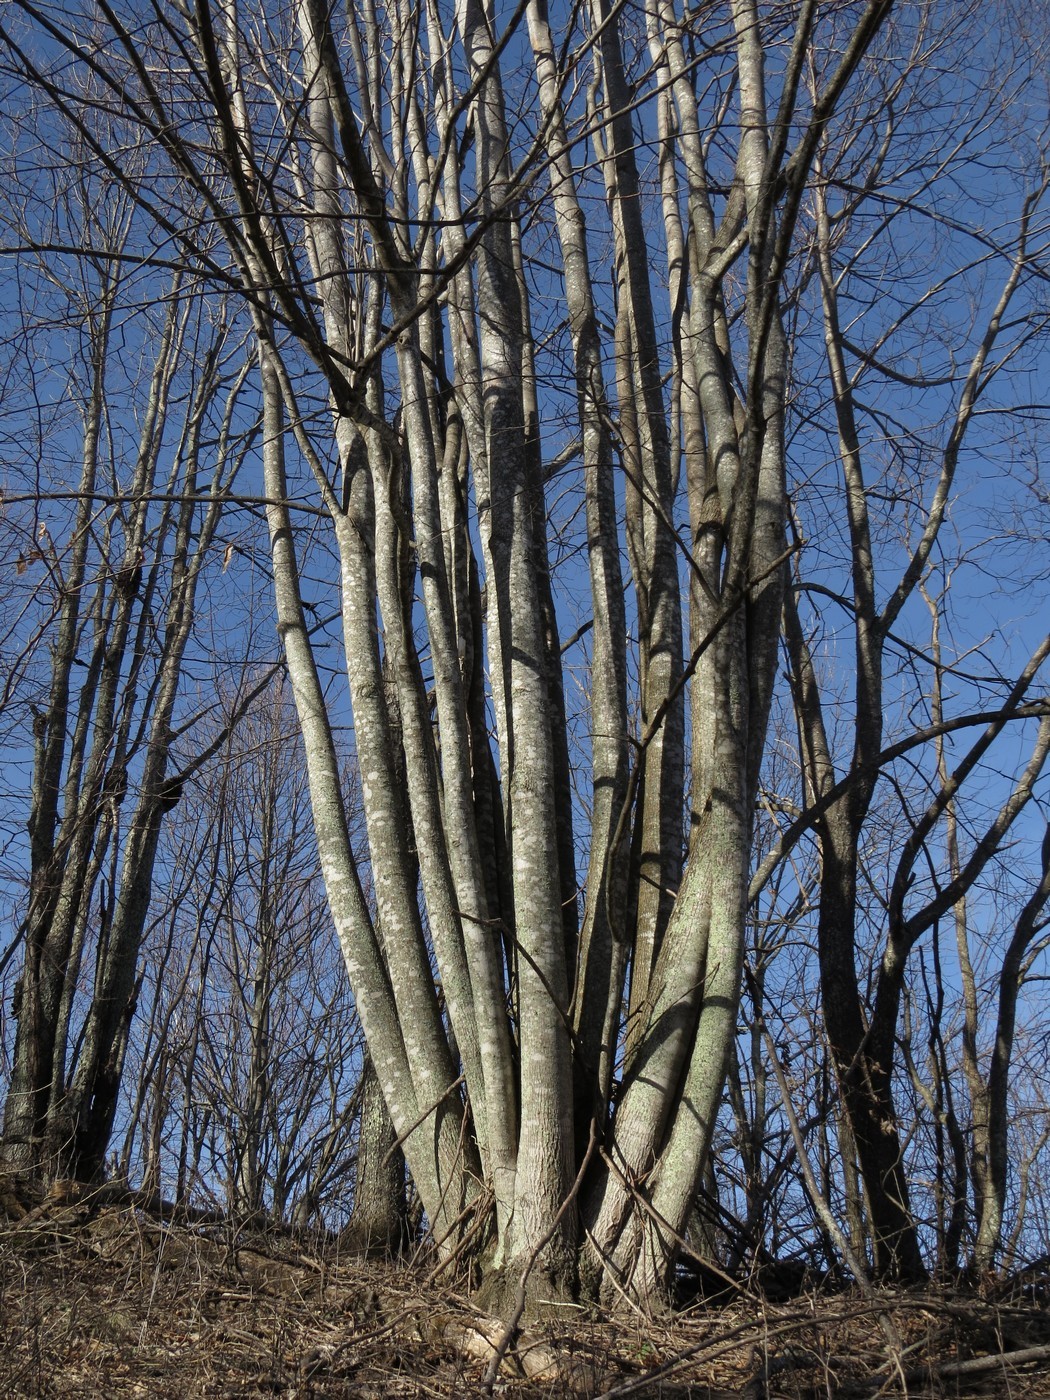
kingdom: Plantae
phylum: Tracheophyta
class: Magnoliopsida
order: Magnoliales
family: Magnoliaceae
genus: Liriodendron
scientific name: Liriodendron tulipifera
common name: Tulip tree
